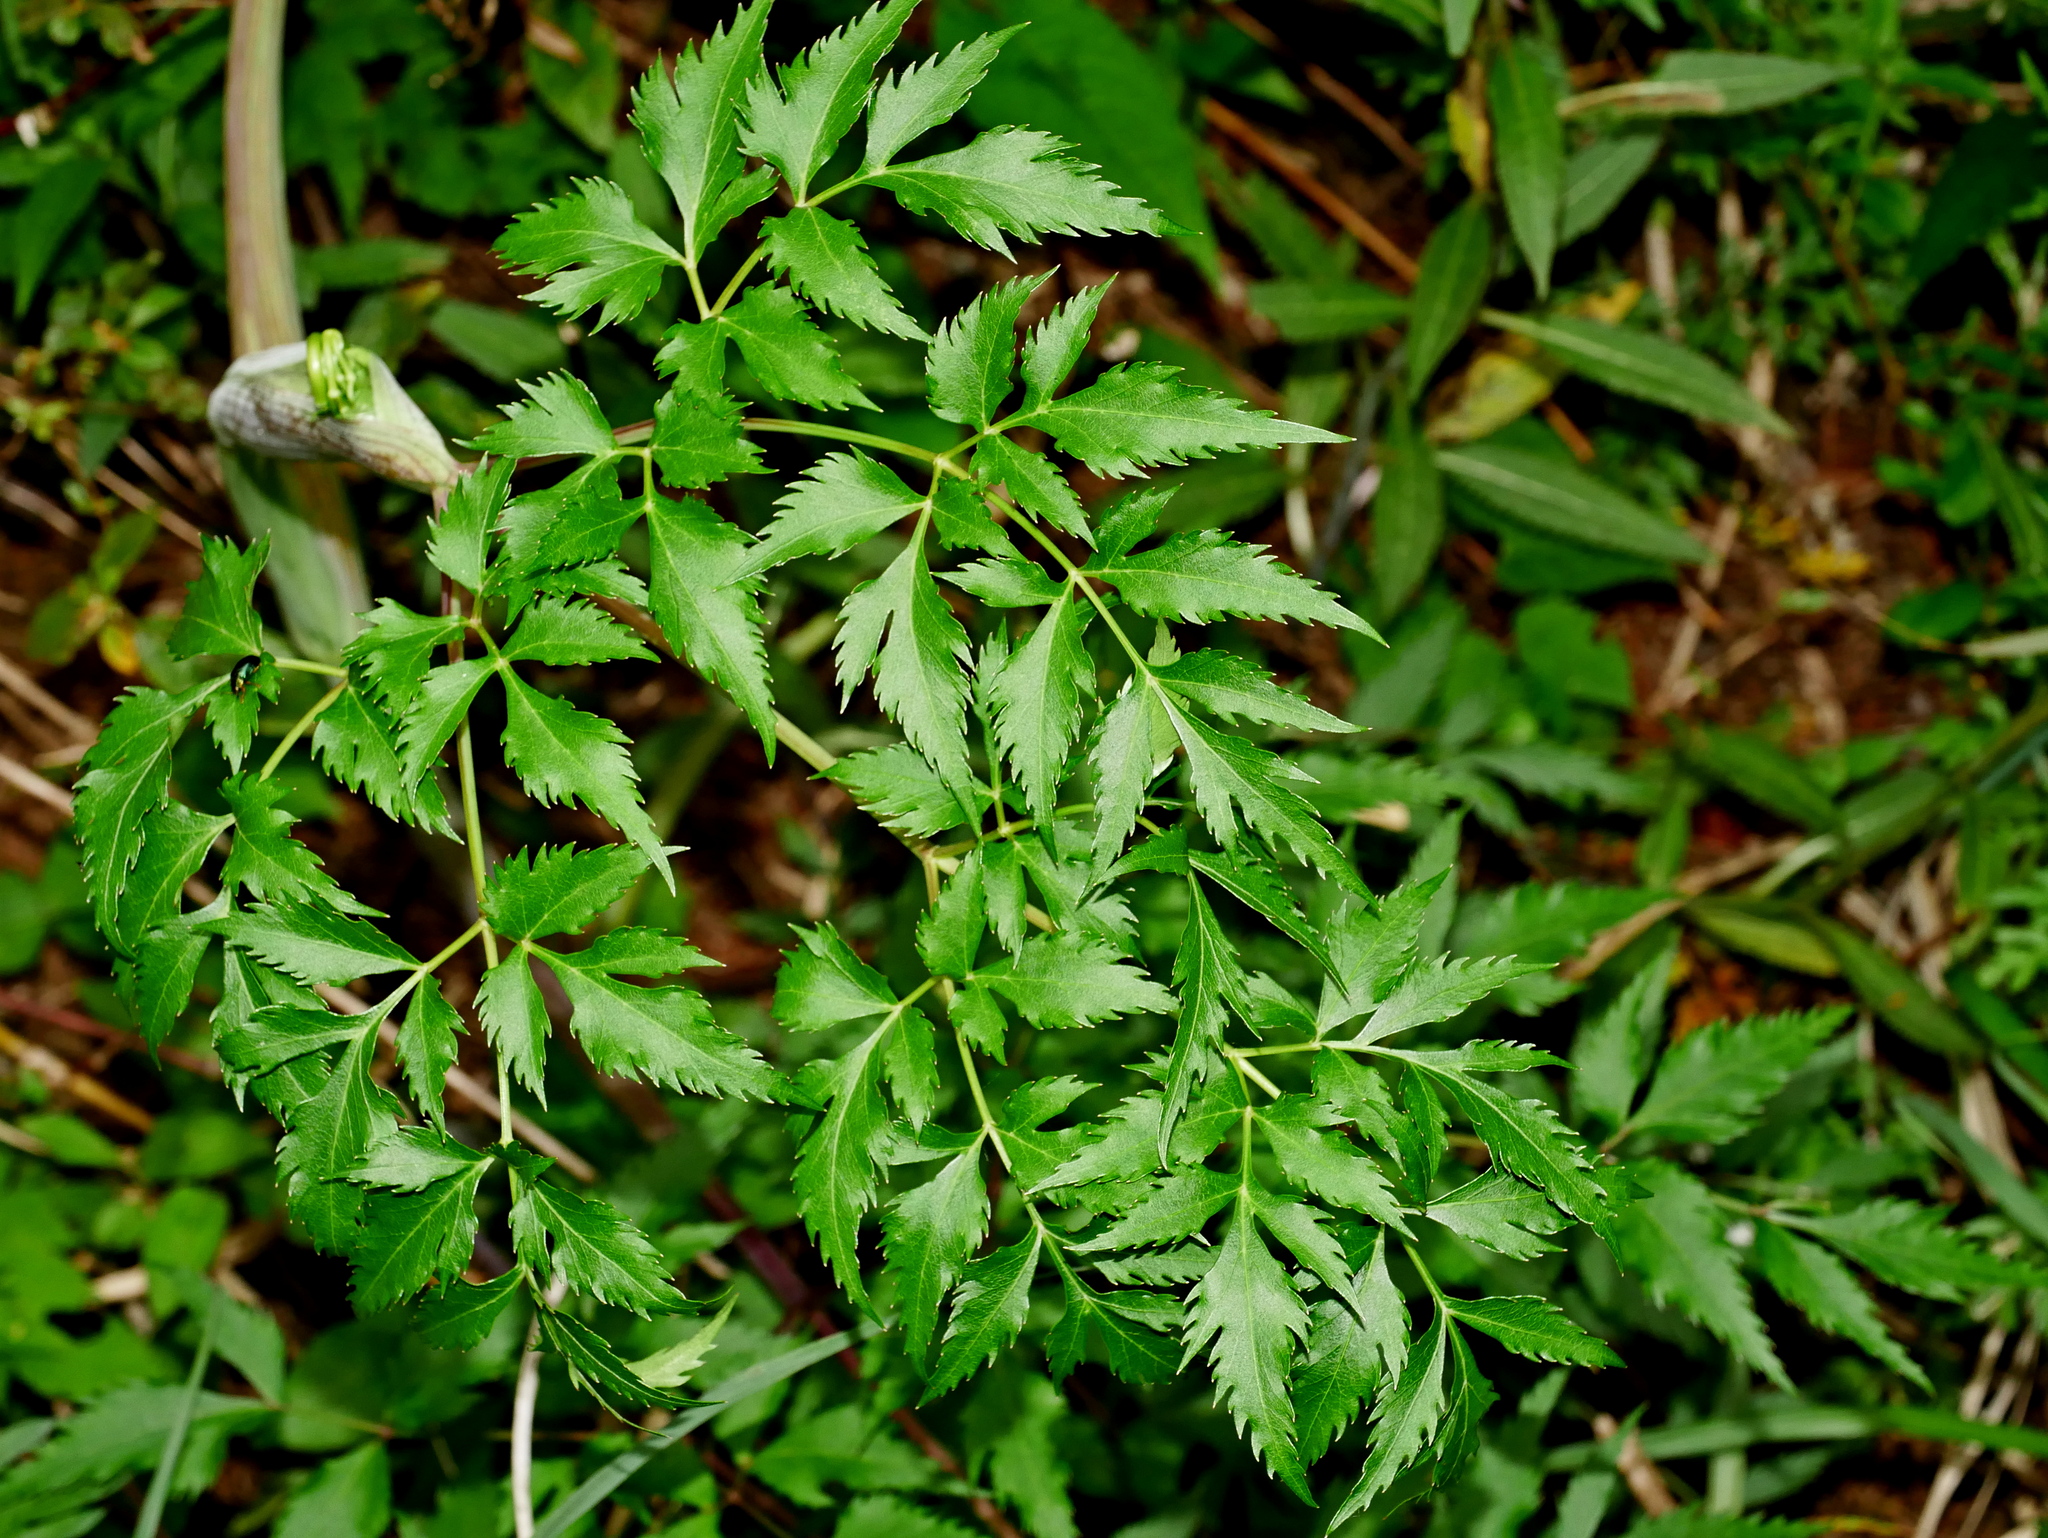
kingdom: Plantae
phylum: Tracheophyta
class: Magnoliopsida
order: Apiales
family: Apiaceae
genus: Angelica
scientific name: Angelica morii
